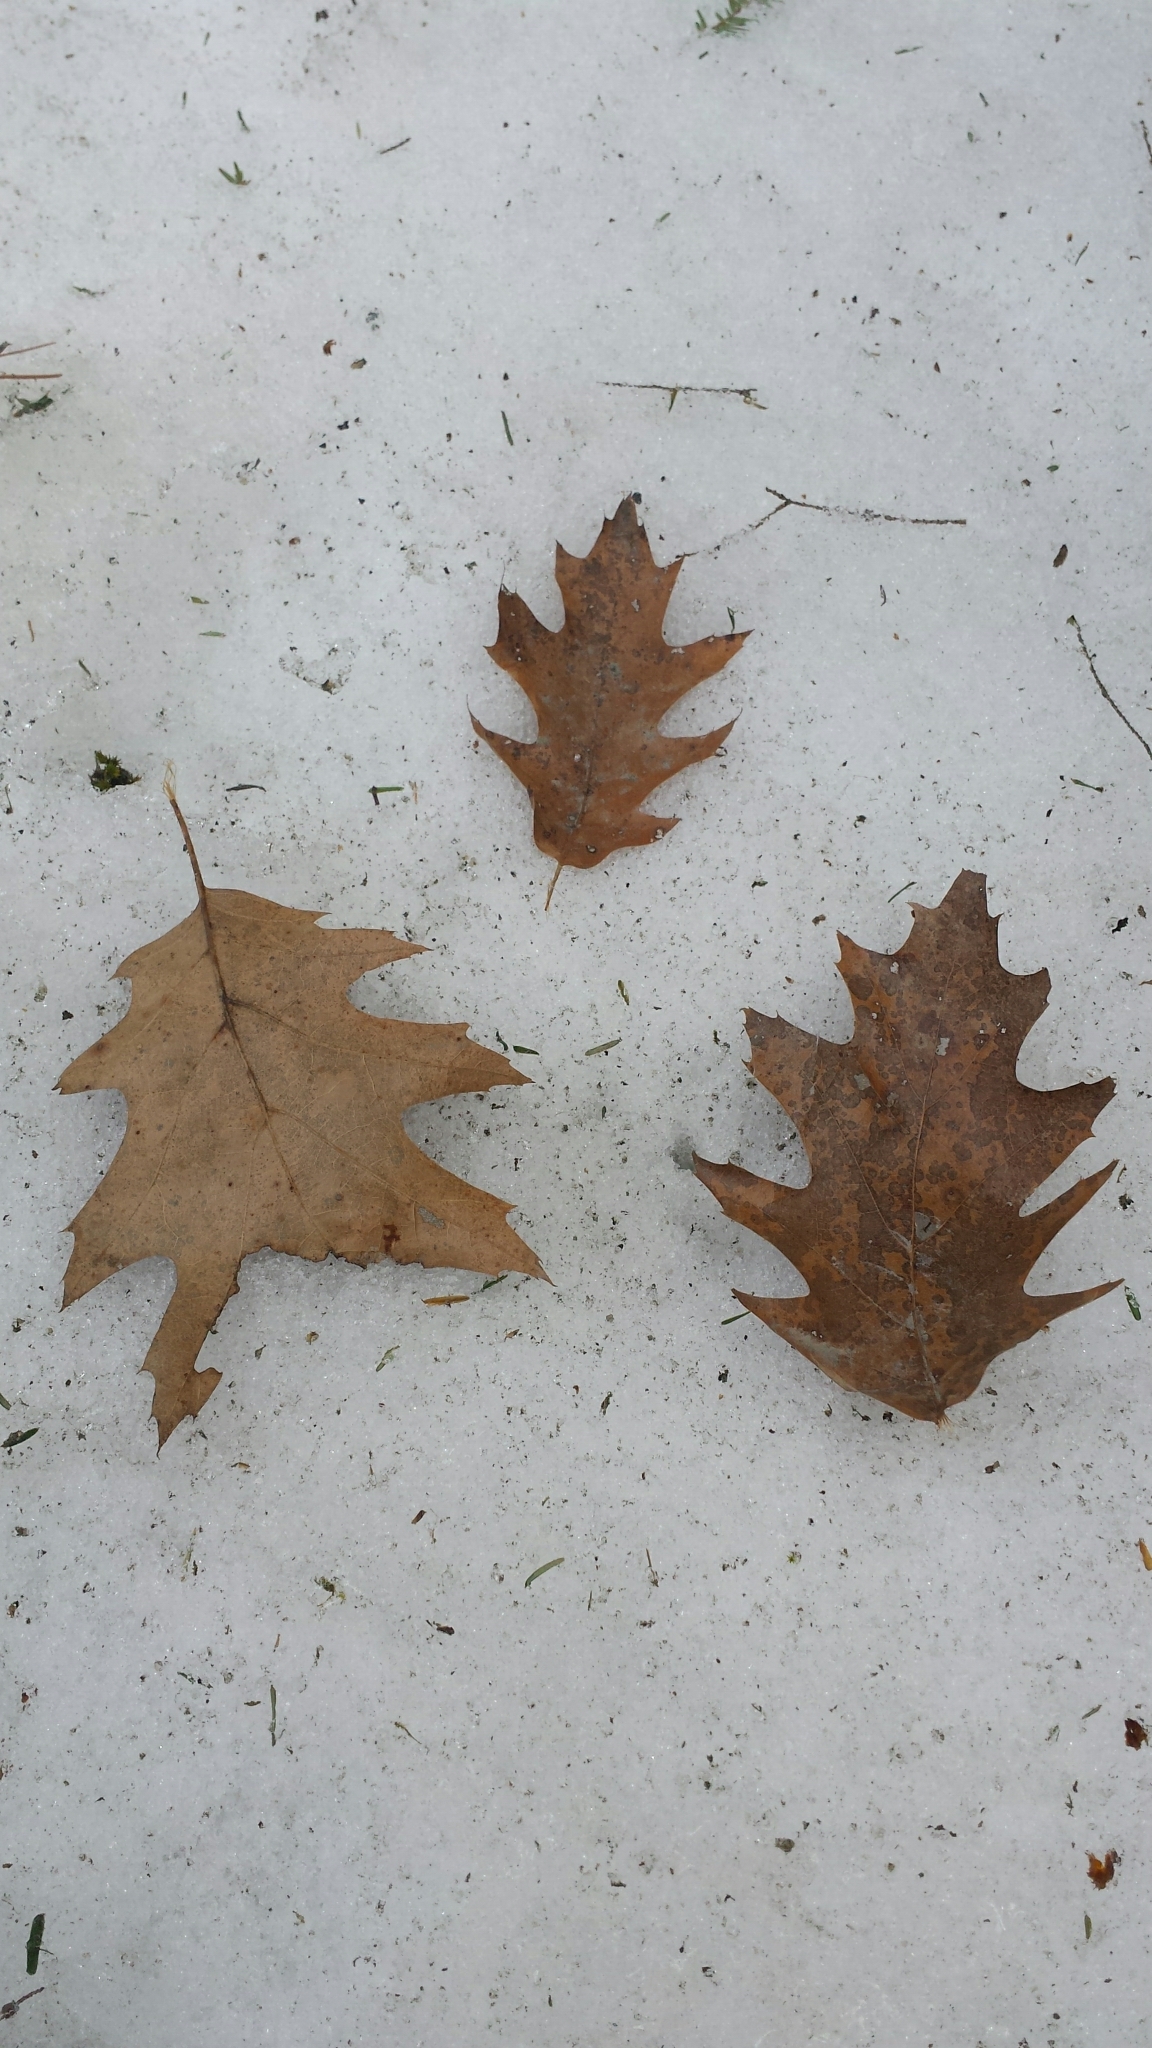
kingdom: Plantae
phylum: Tracheophyta
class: Magnoliopsida
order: Fagales
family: Fagaceae
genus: Quercus
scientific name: Quercus rubra
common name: Red oak
